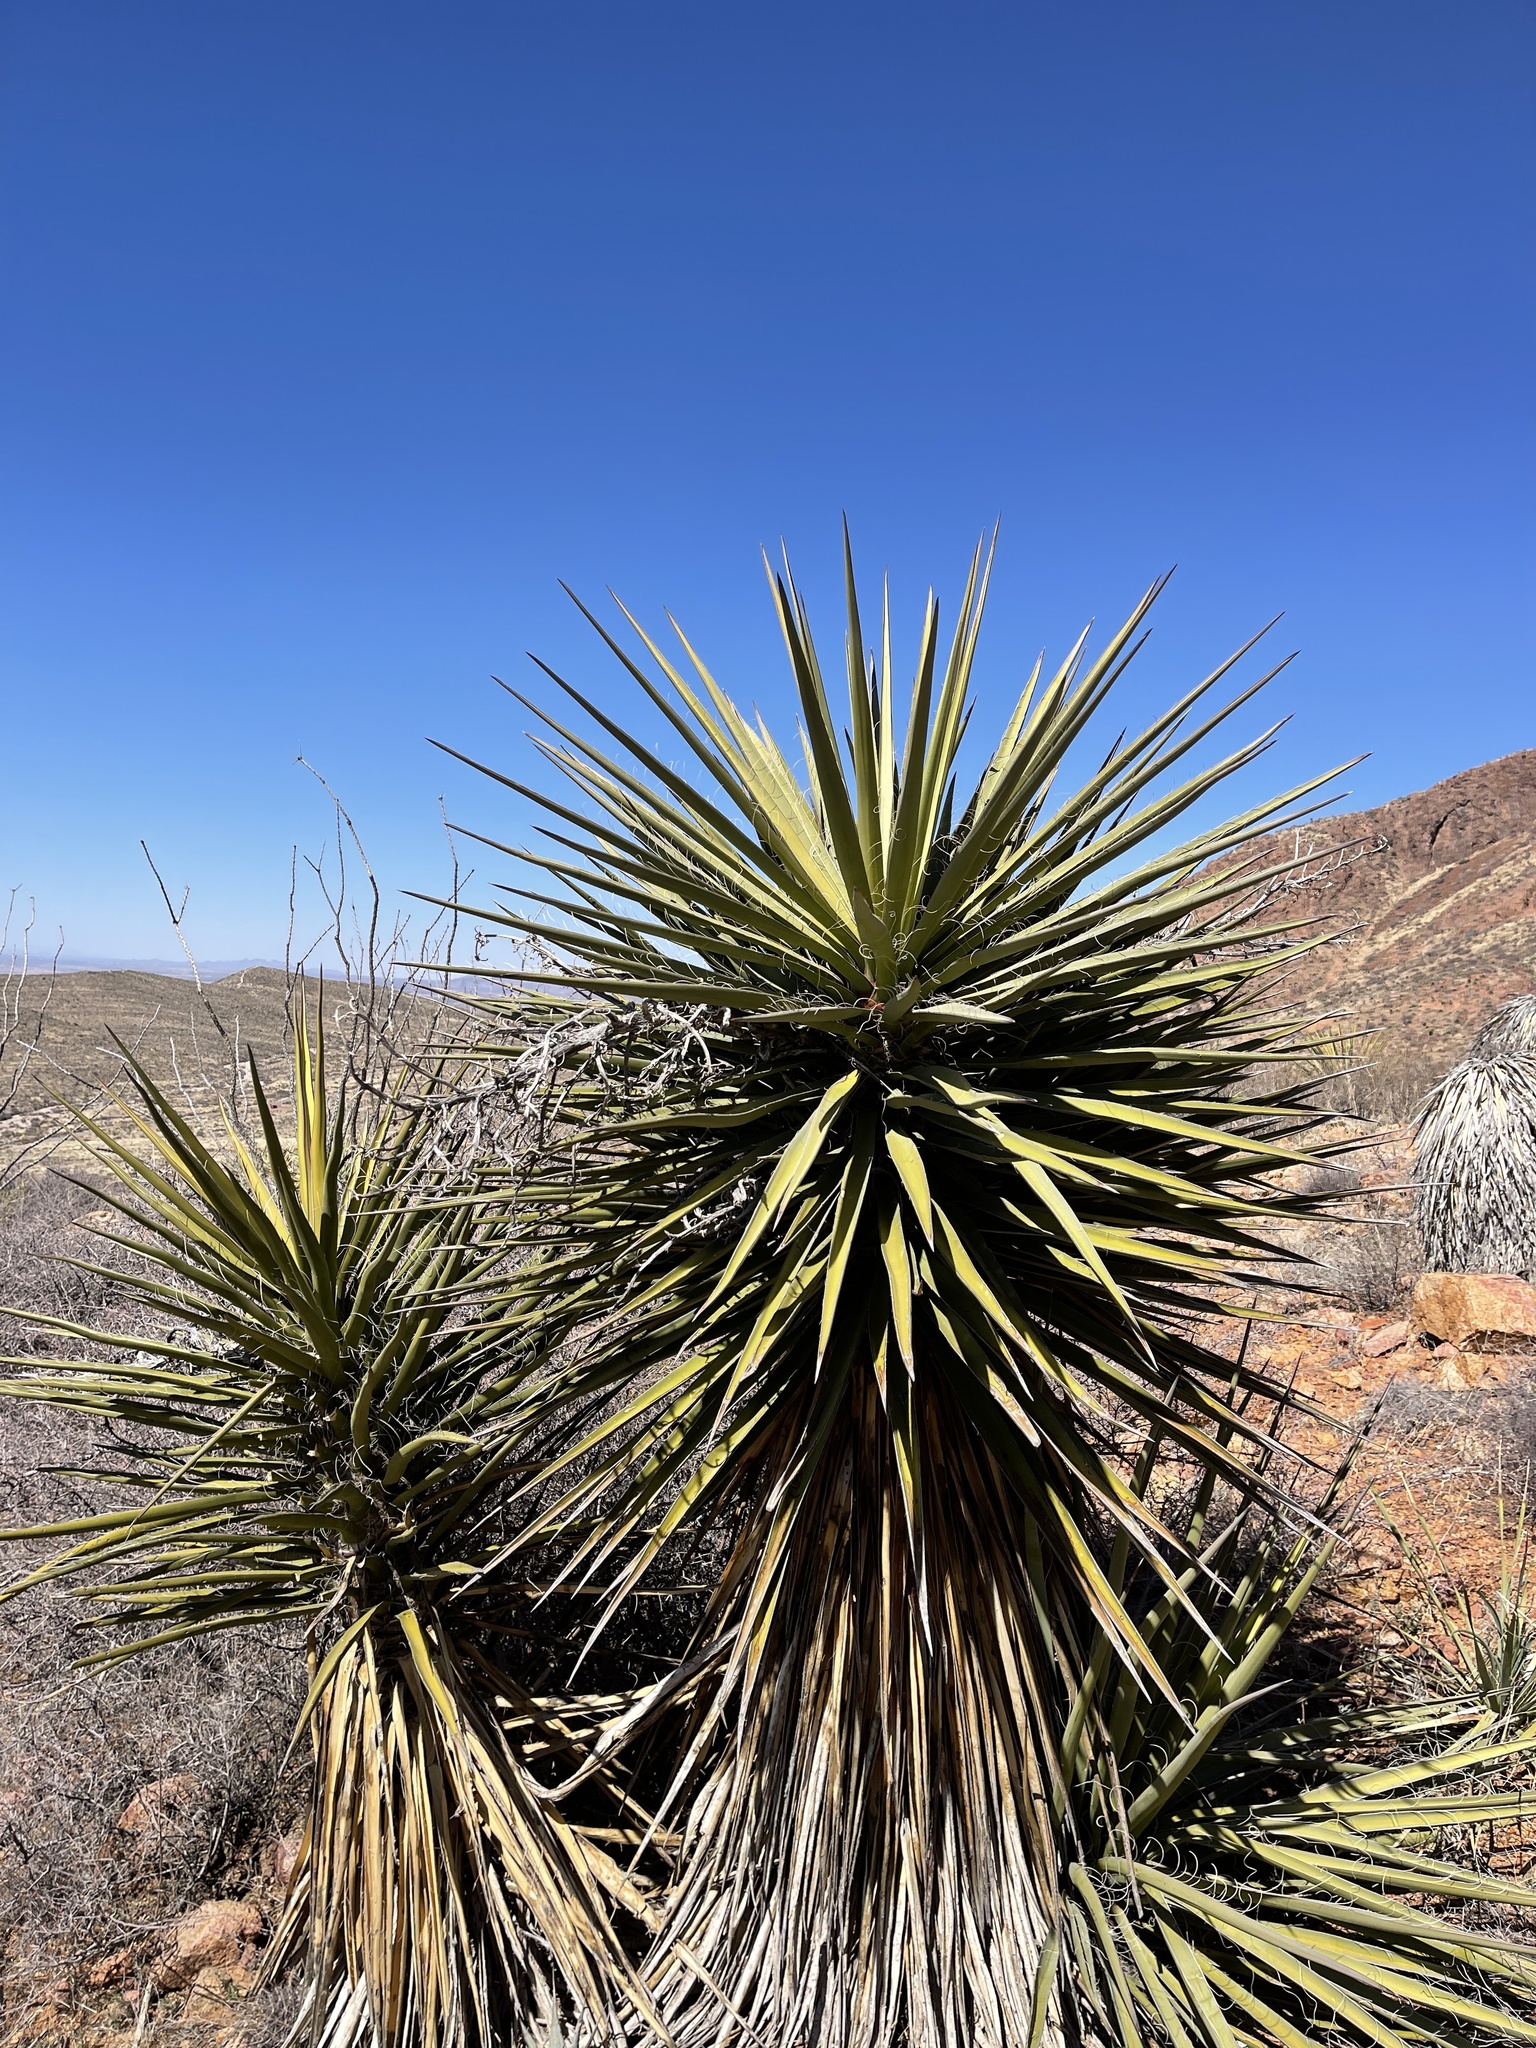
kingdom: Plantae
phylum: Tracheophyta
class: Liliopsida
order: Asparagales
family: Asparagaceae
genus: Yucca
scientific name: Yucca treculiana
